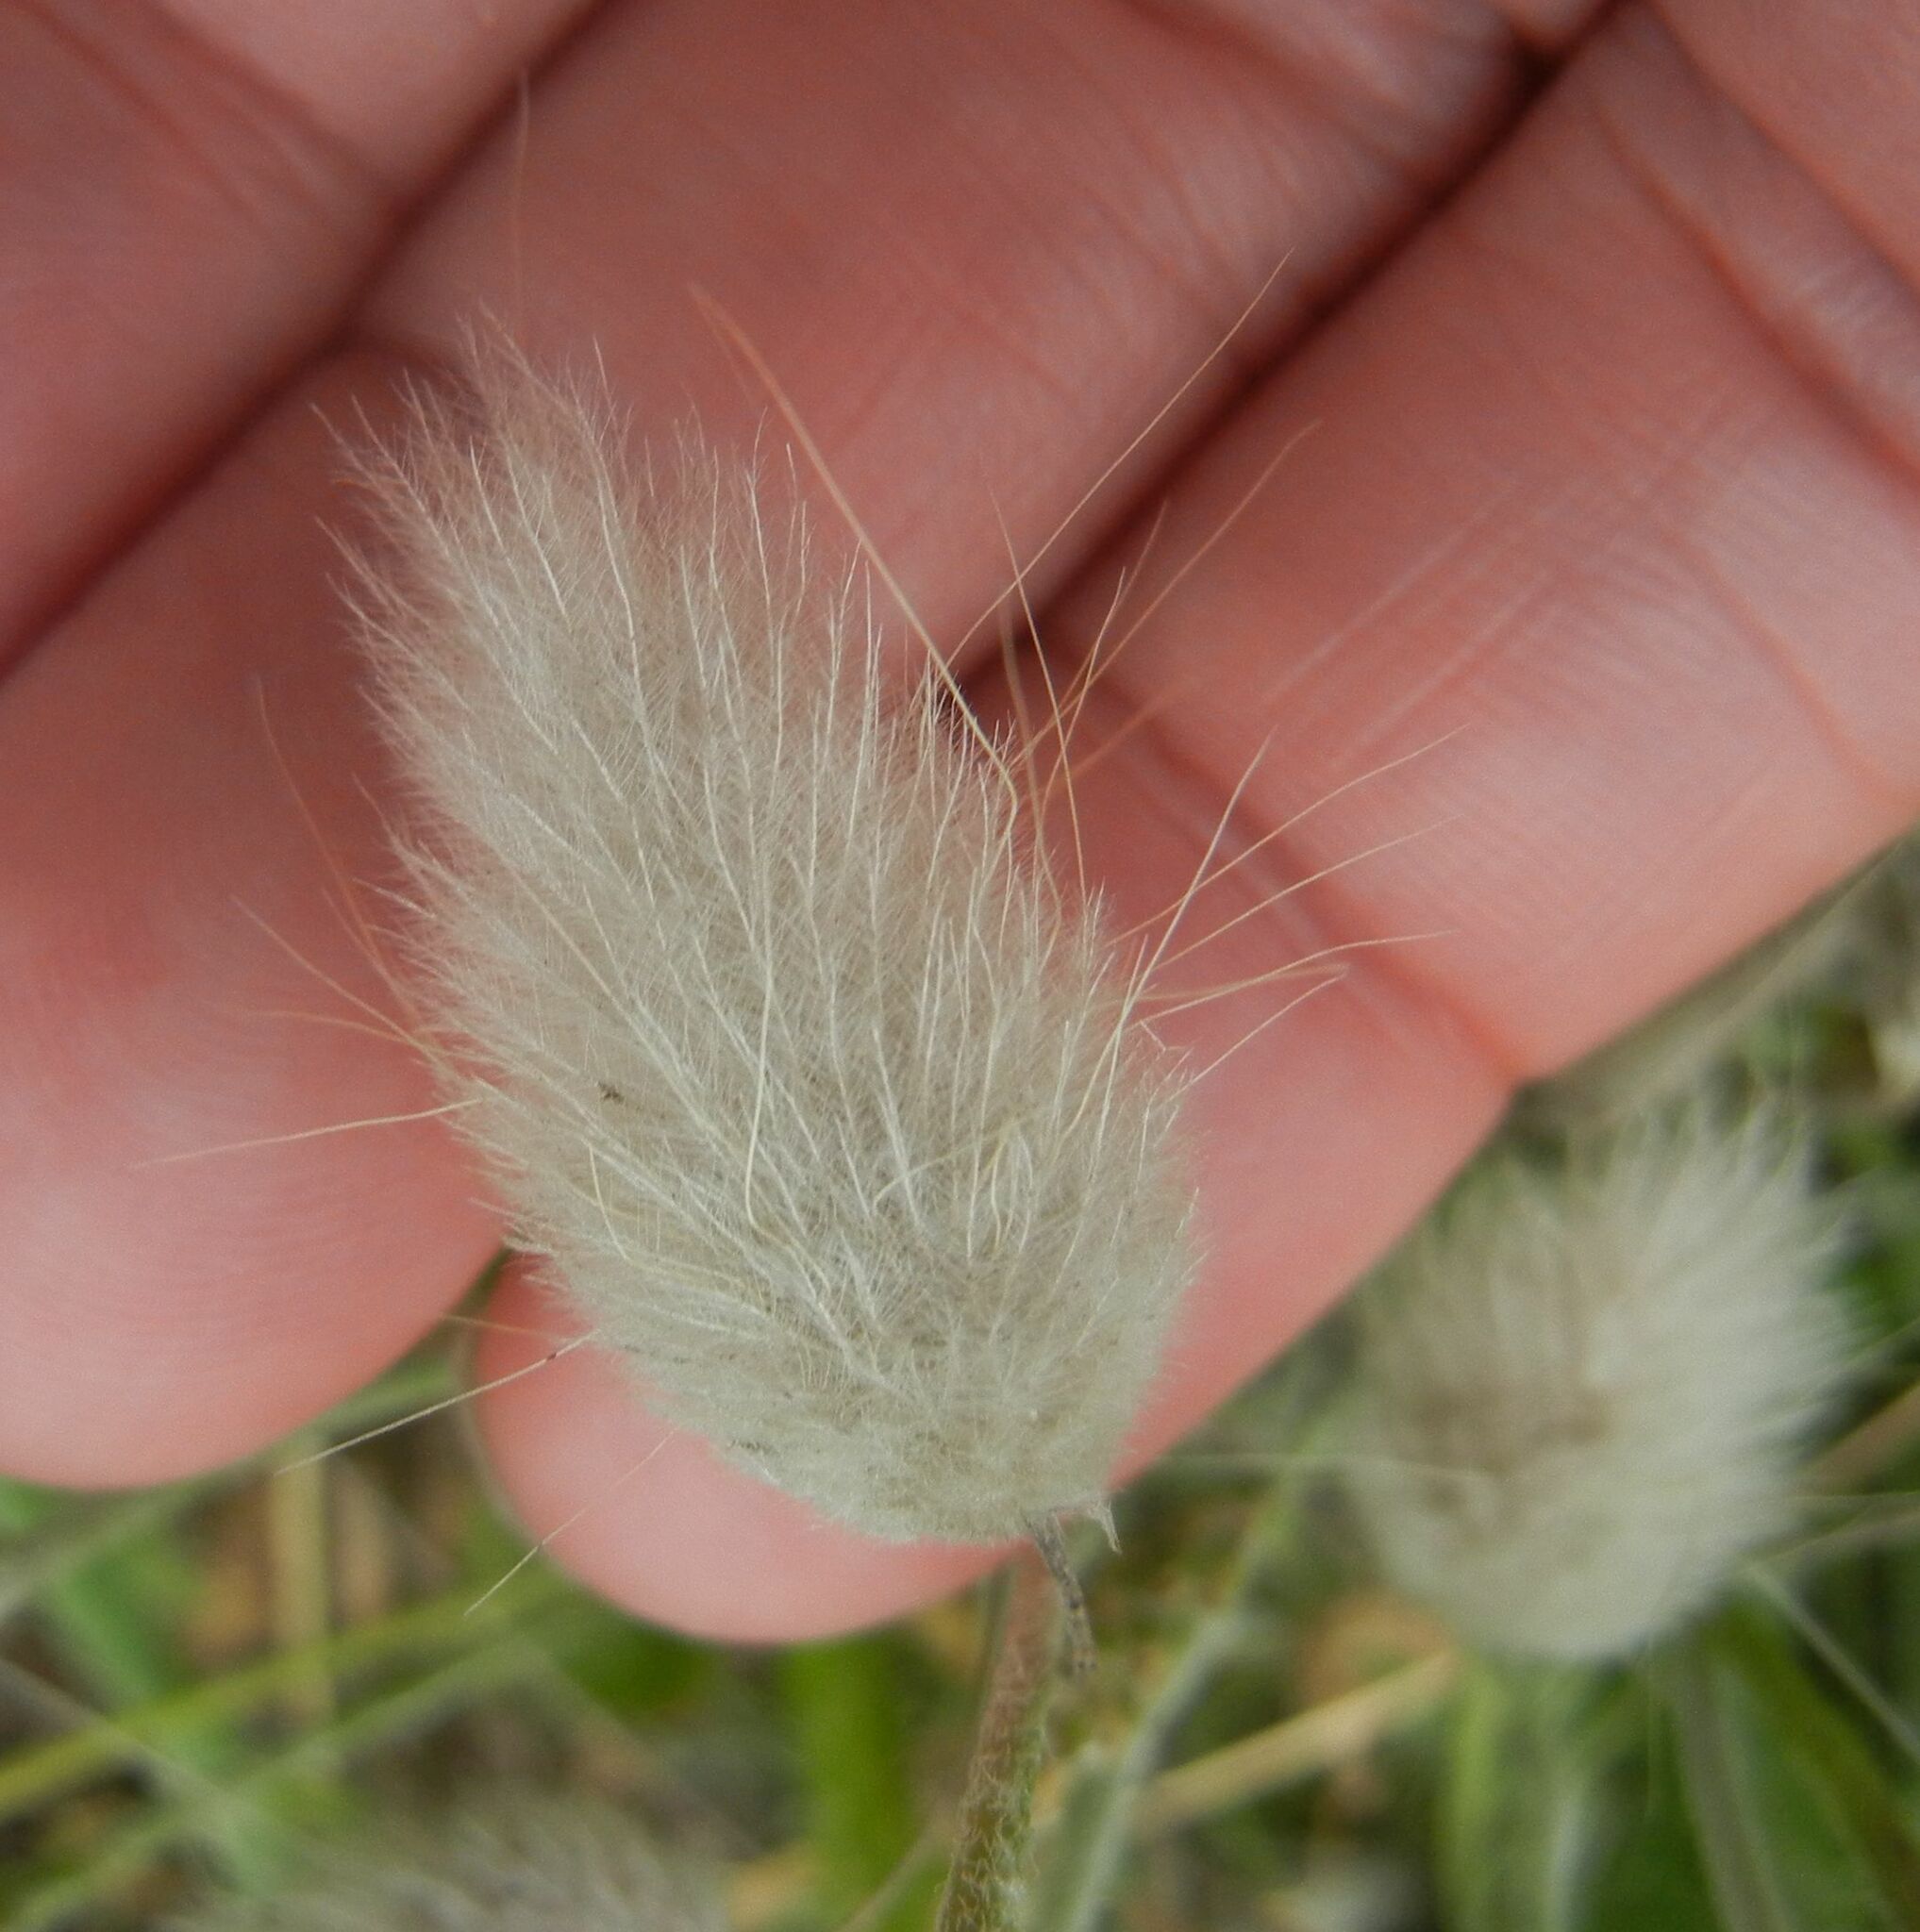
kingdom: Plantae
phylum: Tracheophyta
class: Liliopsida
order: Poales
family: Poaceae
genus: Lagurus
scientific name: Lagurus ovatus
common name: Hare's-tail
